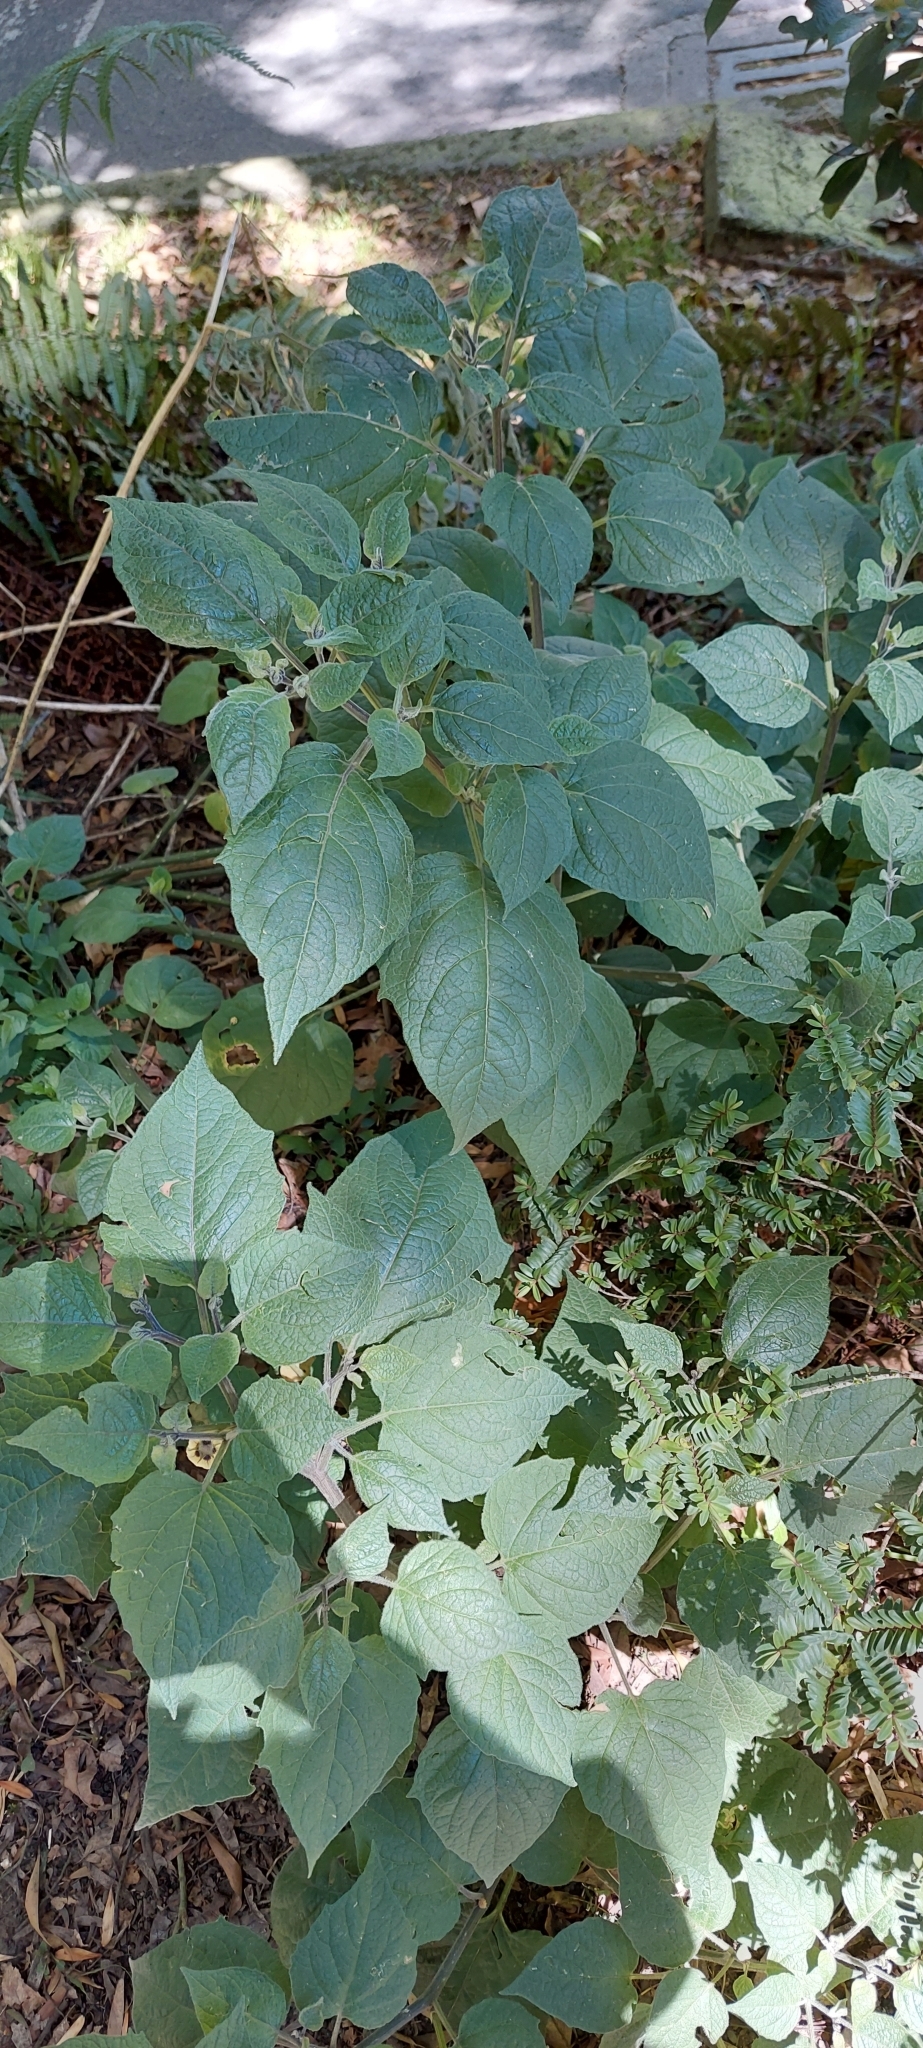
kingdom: Plantae
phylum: Tracheophyta
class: Magnoliopsida
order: Solanales
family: Solanaceae
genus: Physalis
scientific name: Physalis peruviana
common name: Cape-gooseberry
